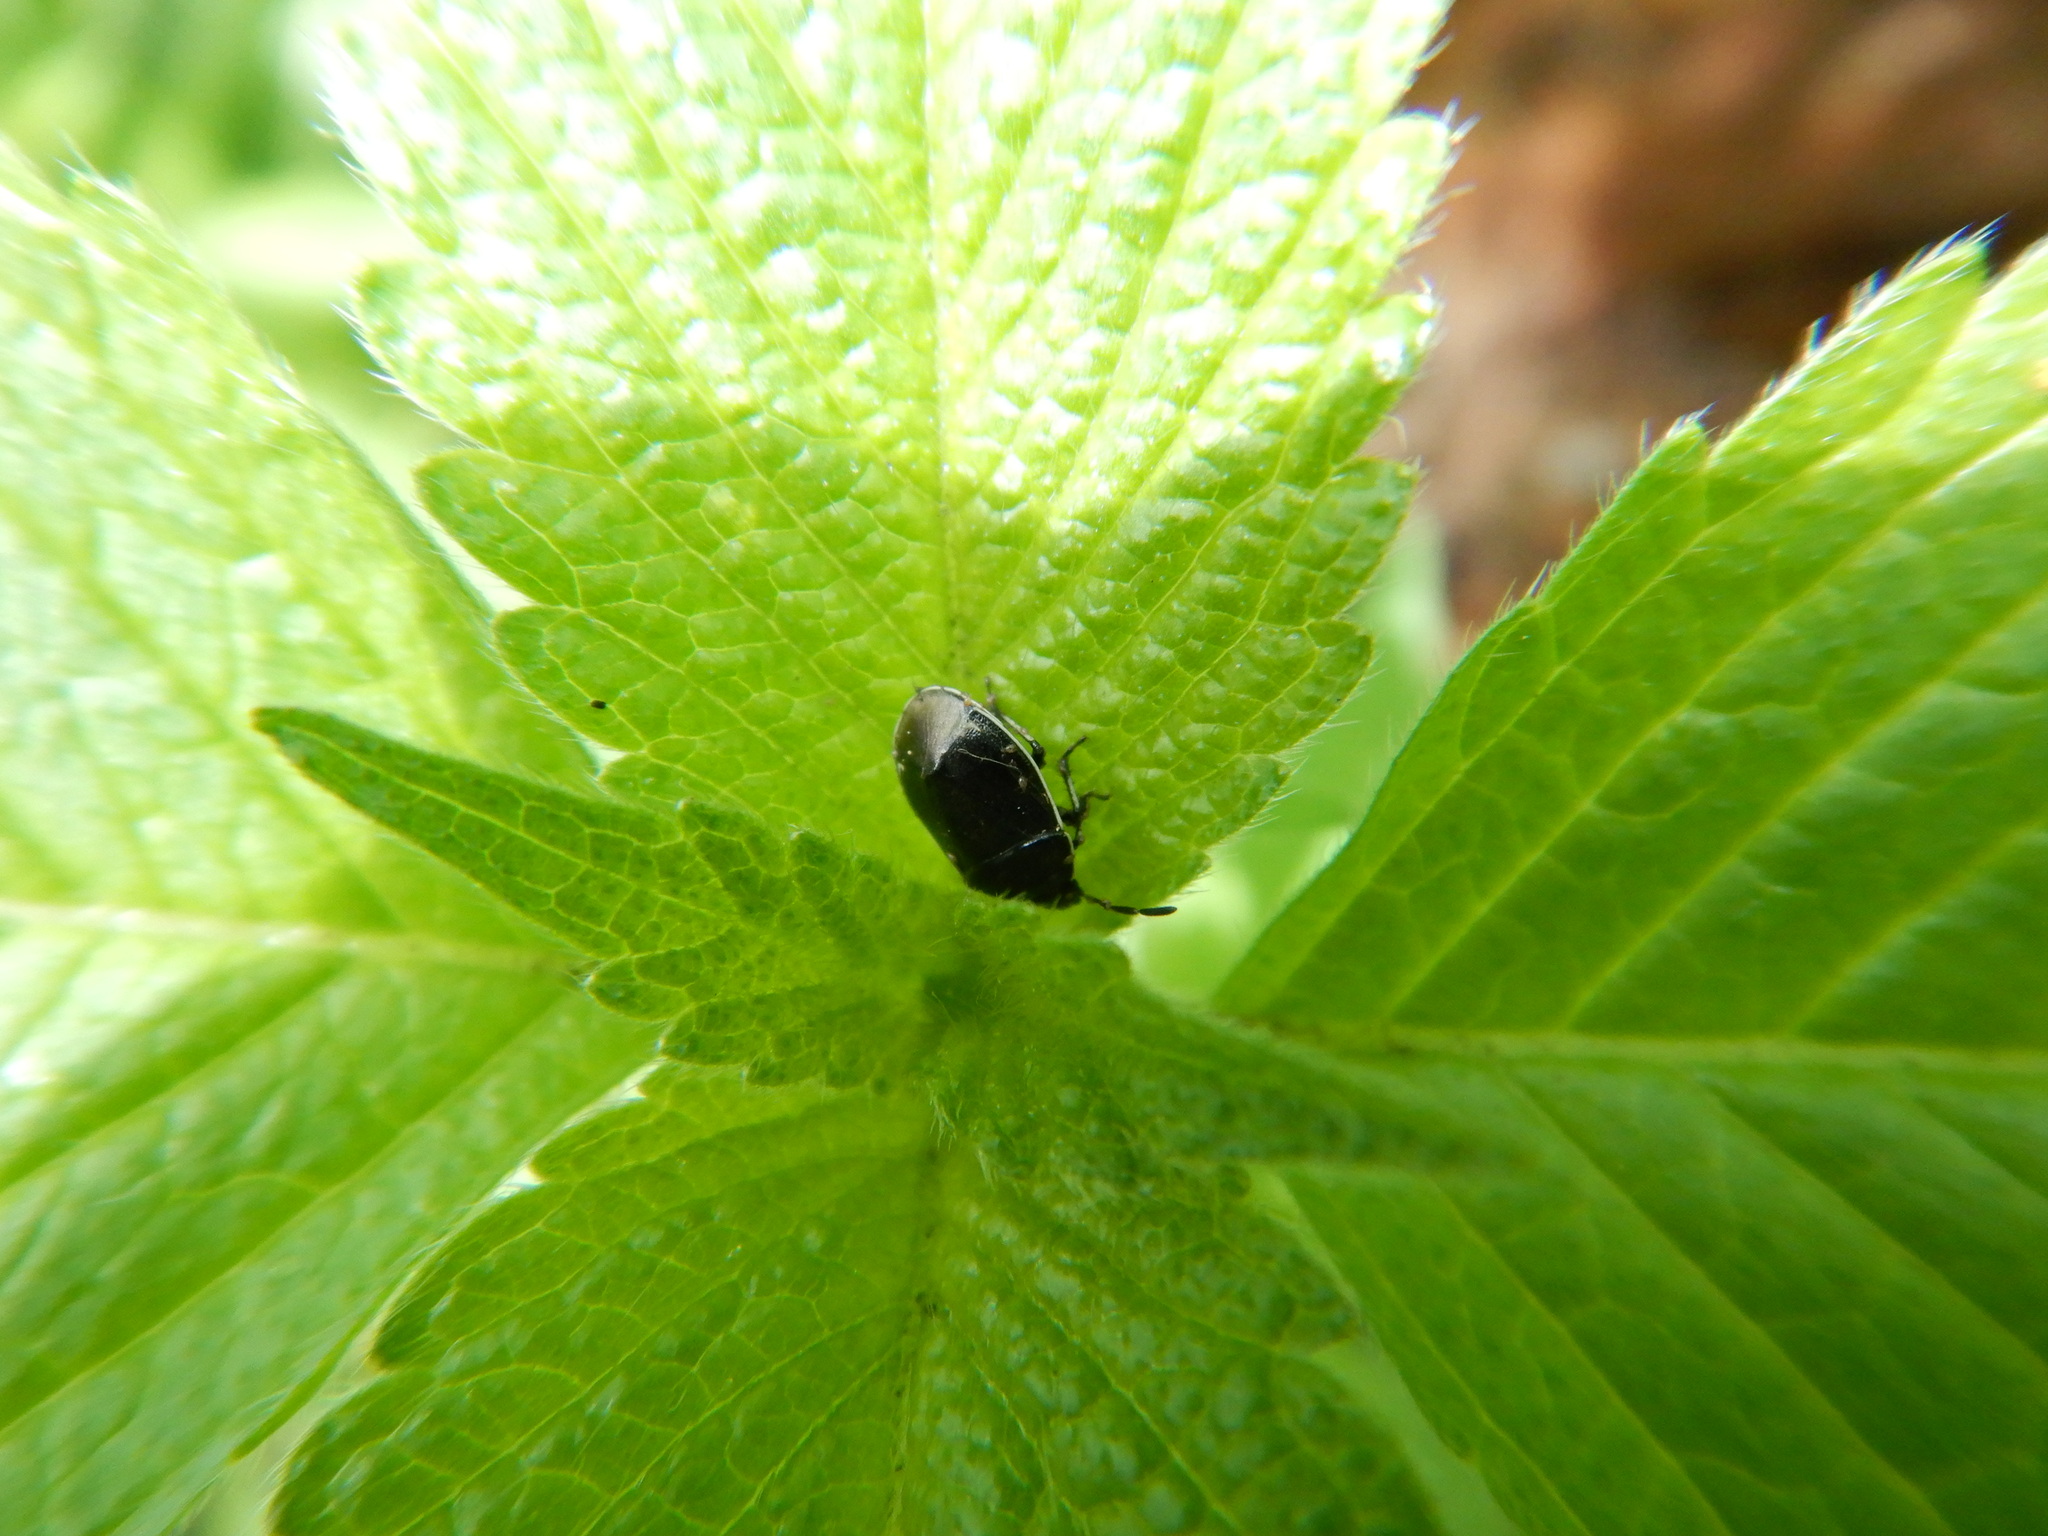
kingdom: Animalia
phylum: Arthropoda
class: Insecta
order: Hemiptera
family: Cydnidae
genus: Sehirus
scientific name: Sehirus cinctus
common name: White-margined burrower bug
